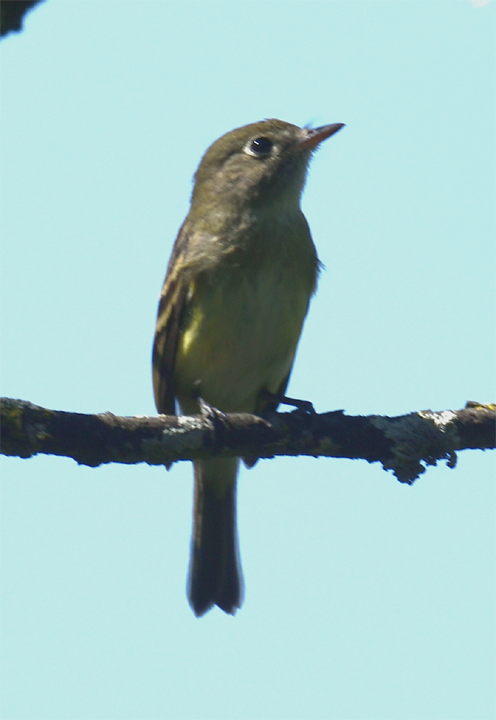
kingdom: Animalia
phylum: Chordata
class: Aves
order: Passeriformes
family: Tyrannidae
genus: Empidonax
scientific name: Empidonax flaviventris
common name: Yellow-bellied flycatcher
